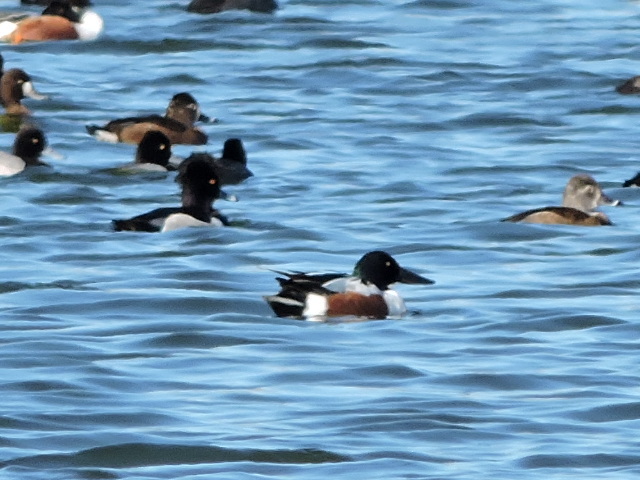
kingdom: Animalia
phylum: Chordata
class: Aves
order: Anseriformes
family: Anatidae
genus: Spatula
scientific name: Spatula clypeata
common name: Northern shoveler
